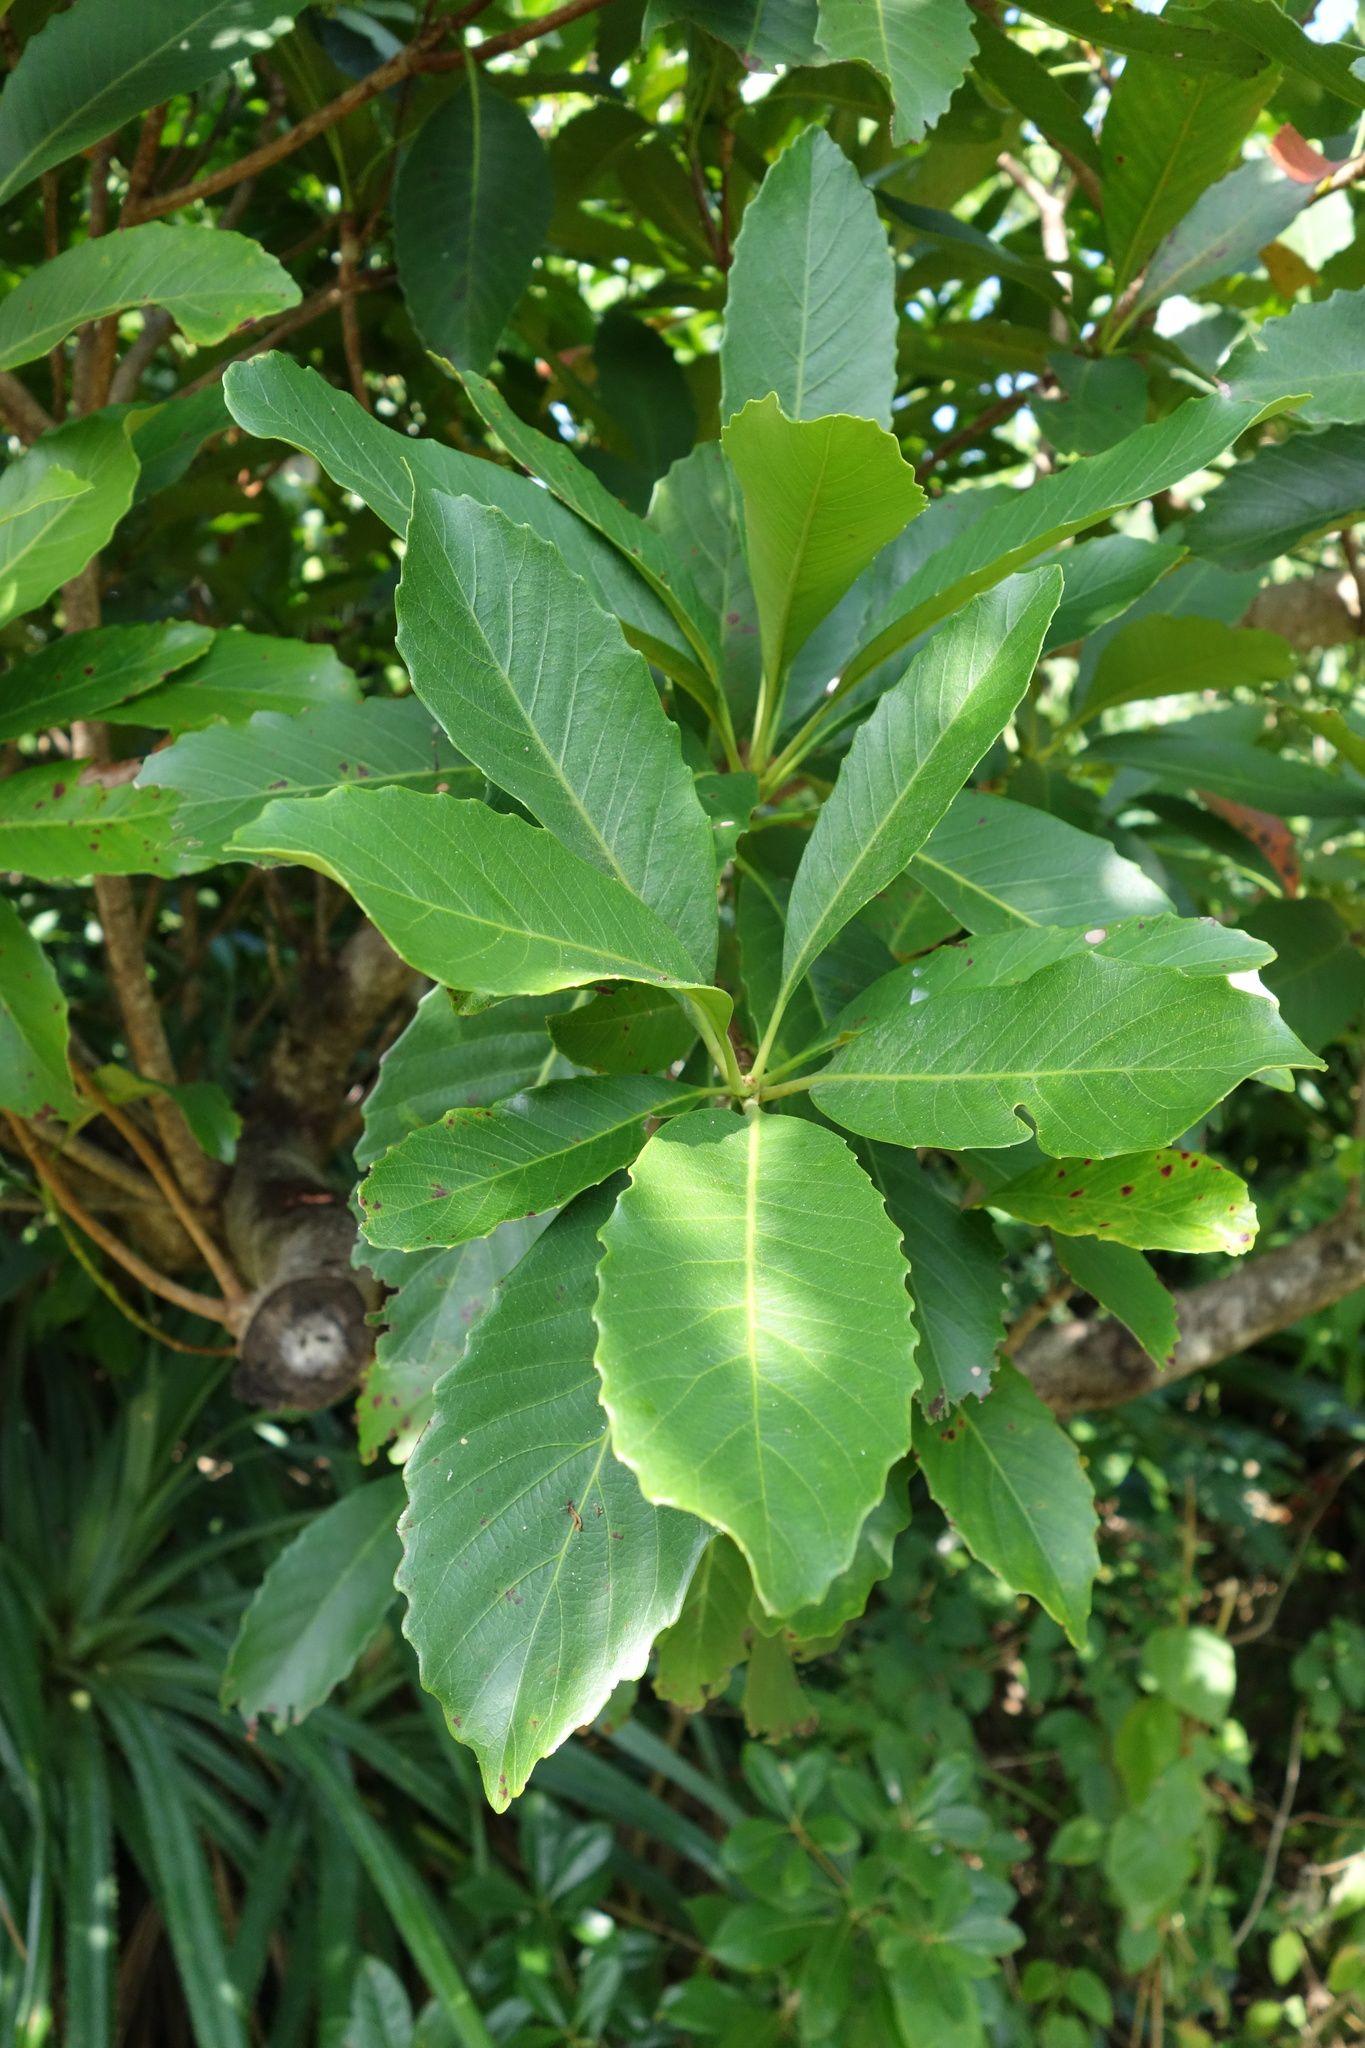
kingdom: Plantae
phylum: Tracheophyta
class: Magnoliopsida
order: Rosales
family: Rosaceae
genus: Rhaphiolepis
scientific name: Rhaphiolepis deflexa
